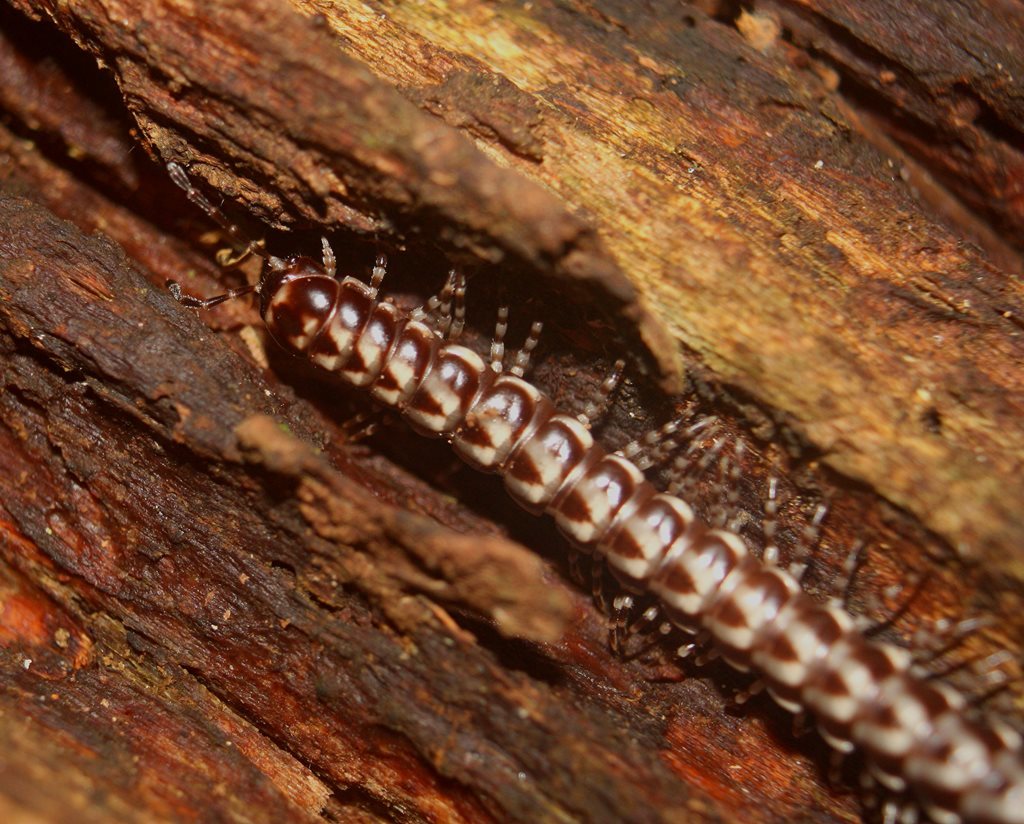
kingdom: Animalia
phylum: Arthropoda
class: Diplopoda
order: Polydesmida
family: Paradoxosomatidae
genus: Phyllocladosoma
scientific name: Phyllocladosoma broelemanni
